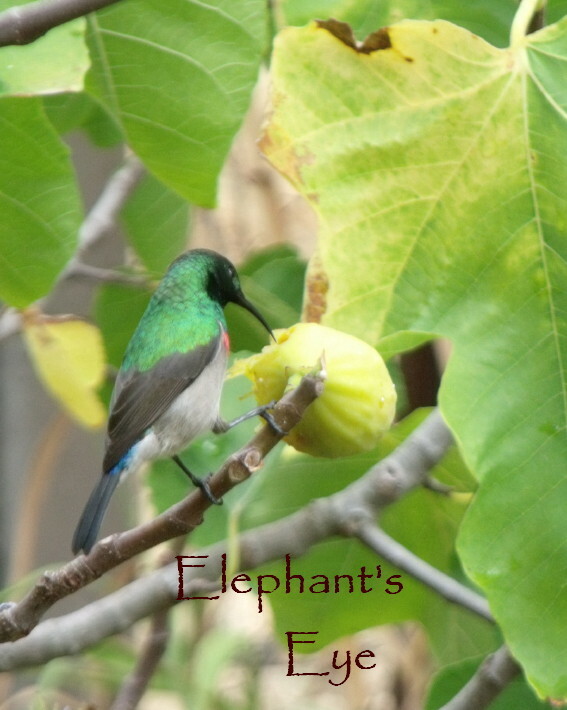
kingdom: Animalia
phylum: Chordata
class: Aves
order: Passeriformes
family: Nectariniidae
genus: Cinnyris
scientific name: Cinnyris chalybeus
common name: Southern double-collared sunbird
